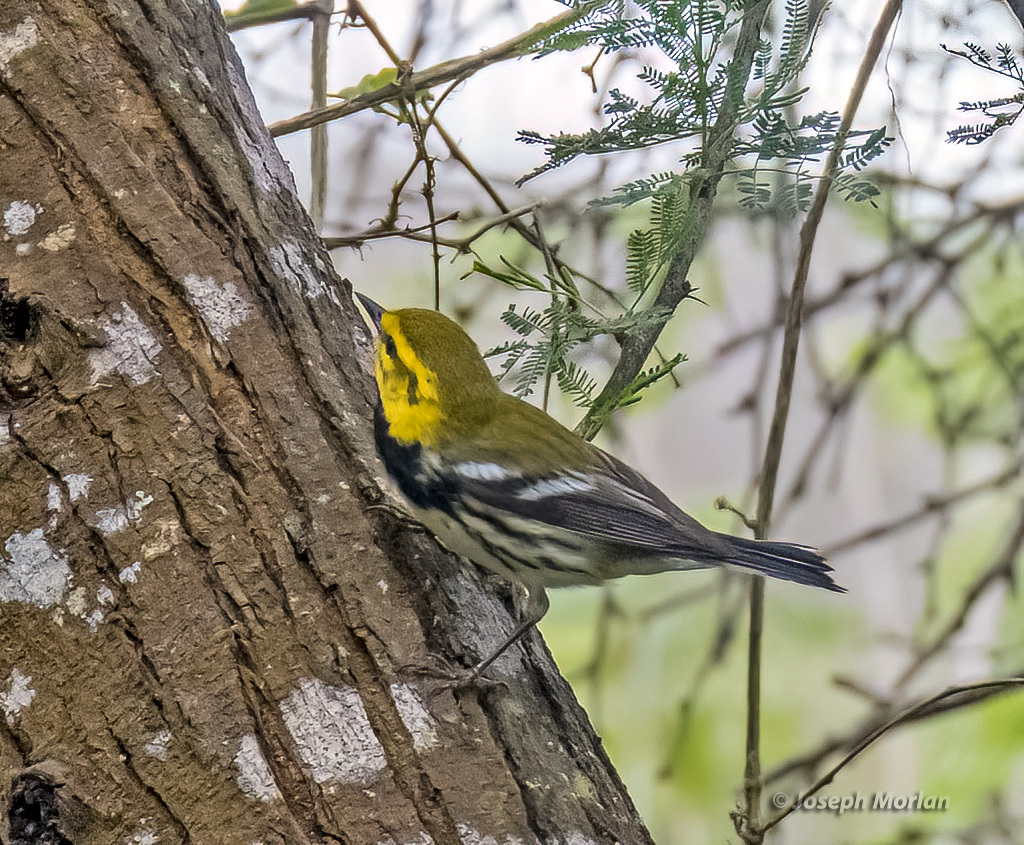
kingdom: Animalia
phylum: Chordata
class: Aves
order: Passeriformes
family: Parulidae
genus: Setophaga
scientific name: Setophaga virens
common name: Black-throated green warbler
